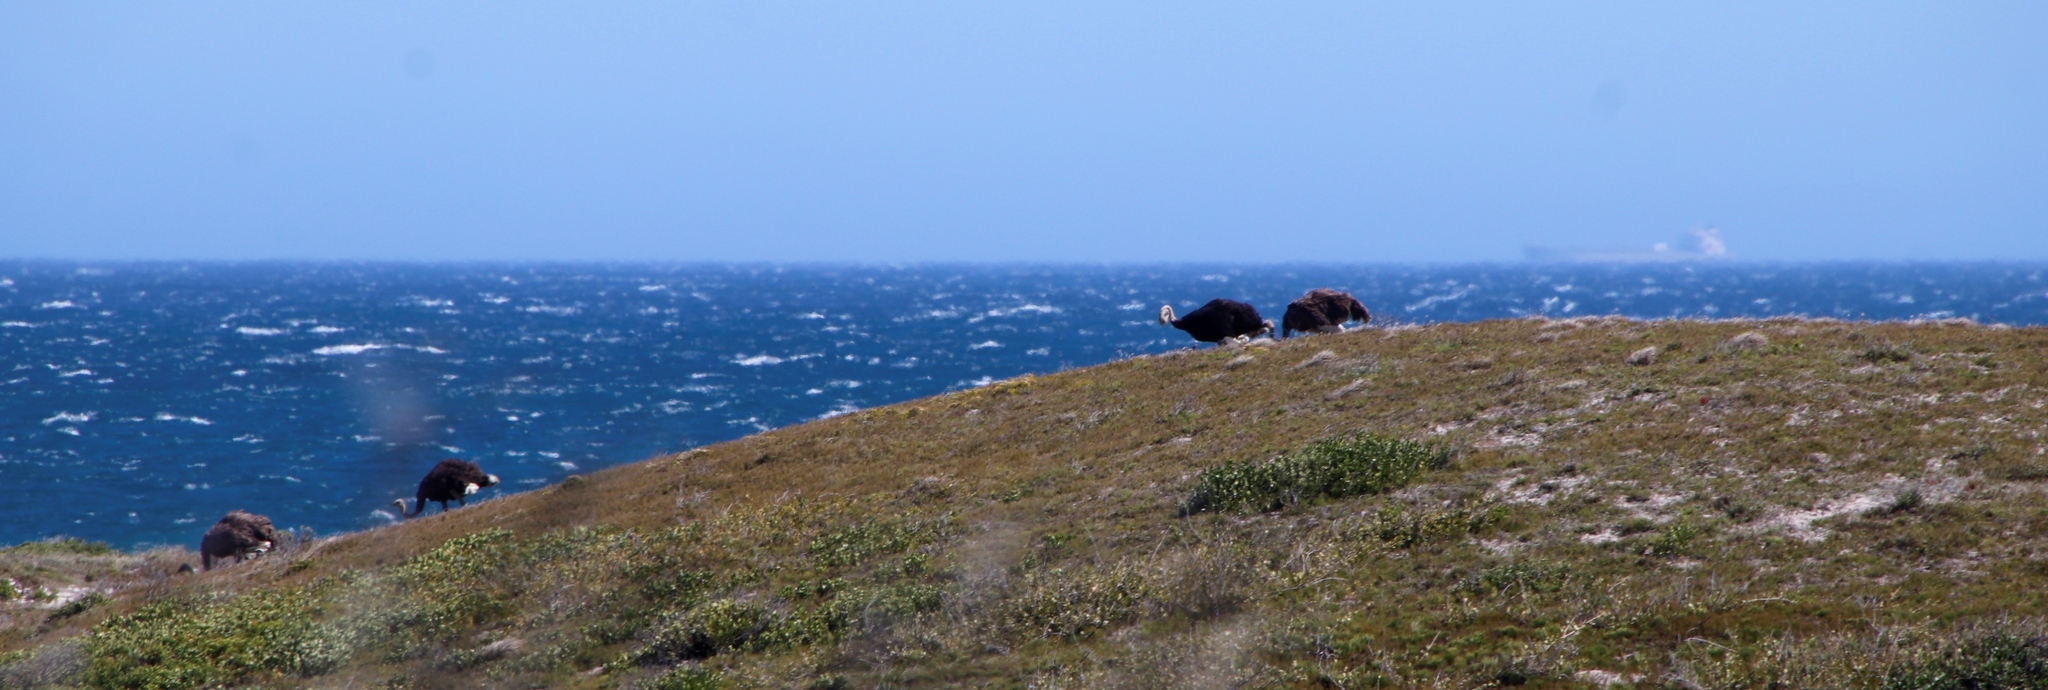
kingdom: Animalia
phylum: Chordata
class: Aves
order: Struthioniformes
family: Struthionidae
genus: Struthio
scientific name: Struthio camelus
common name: Common ostrich
